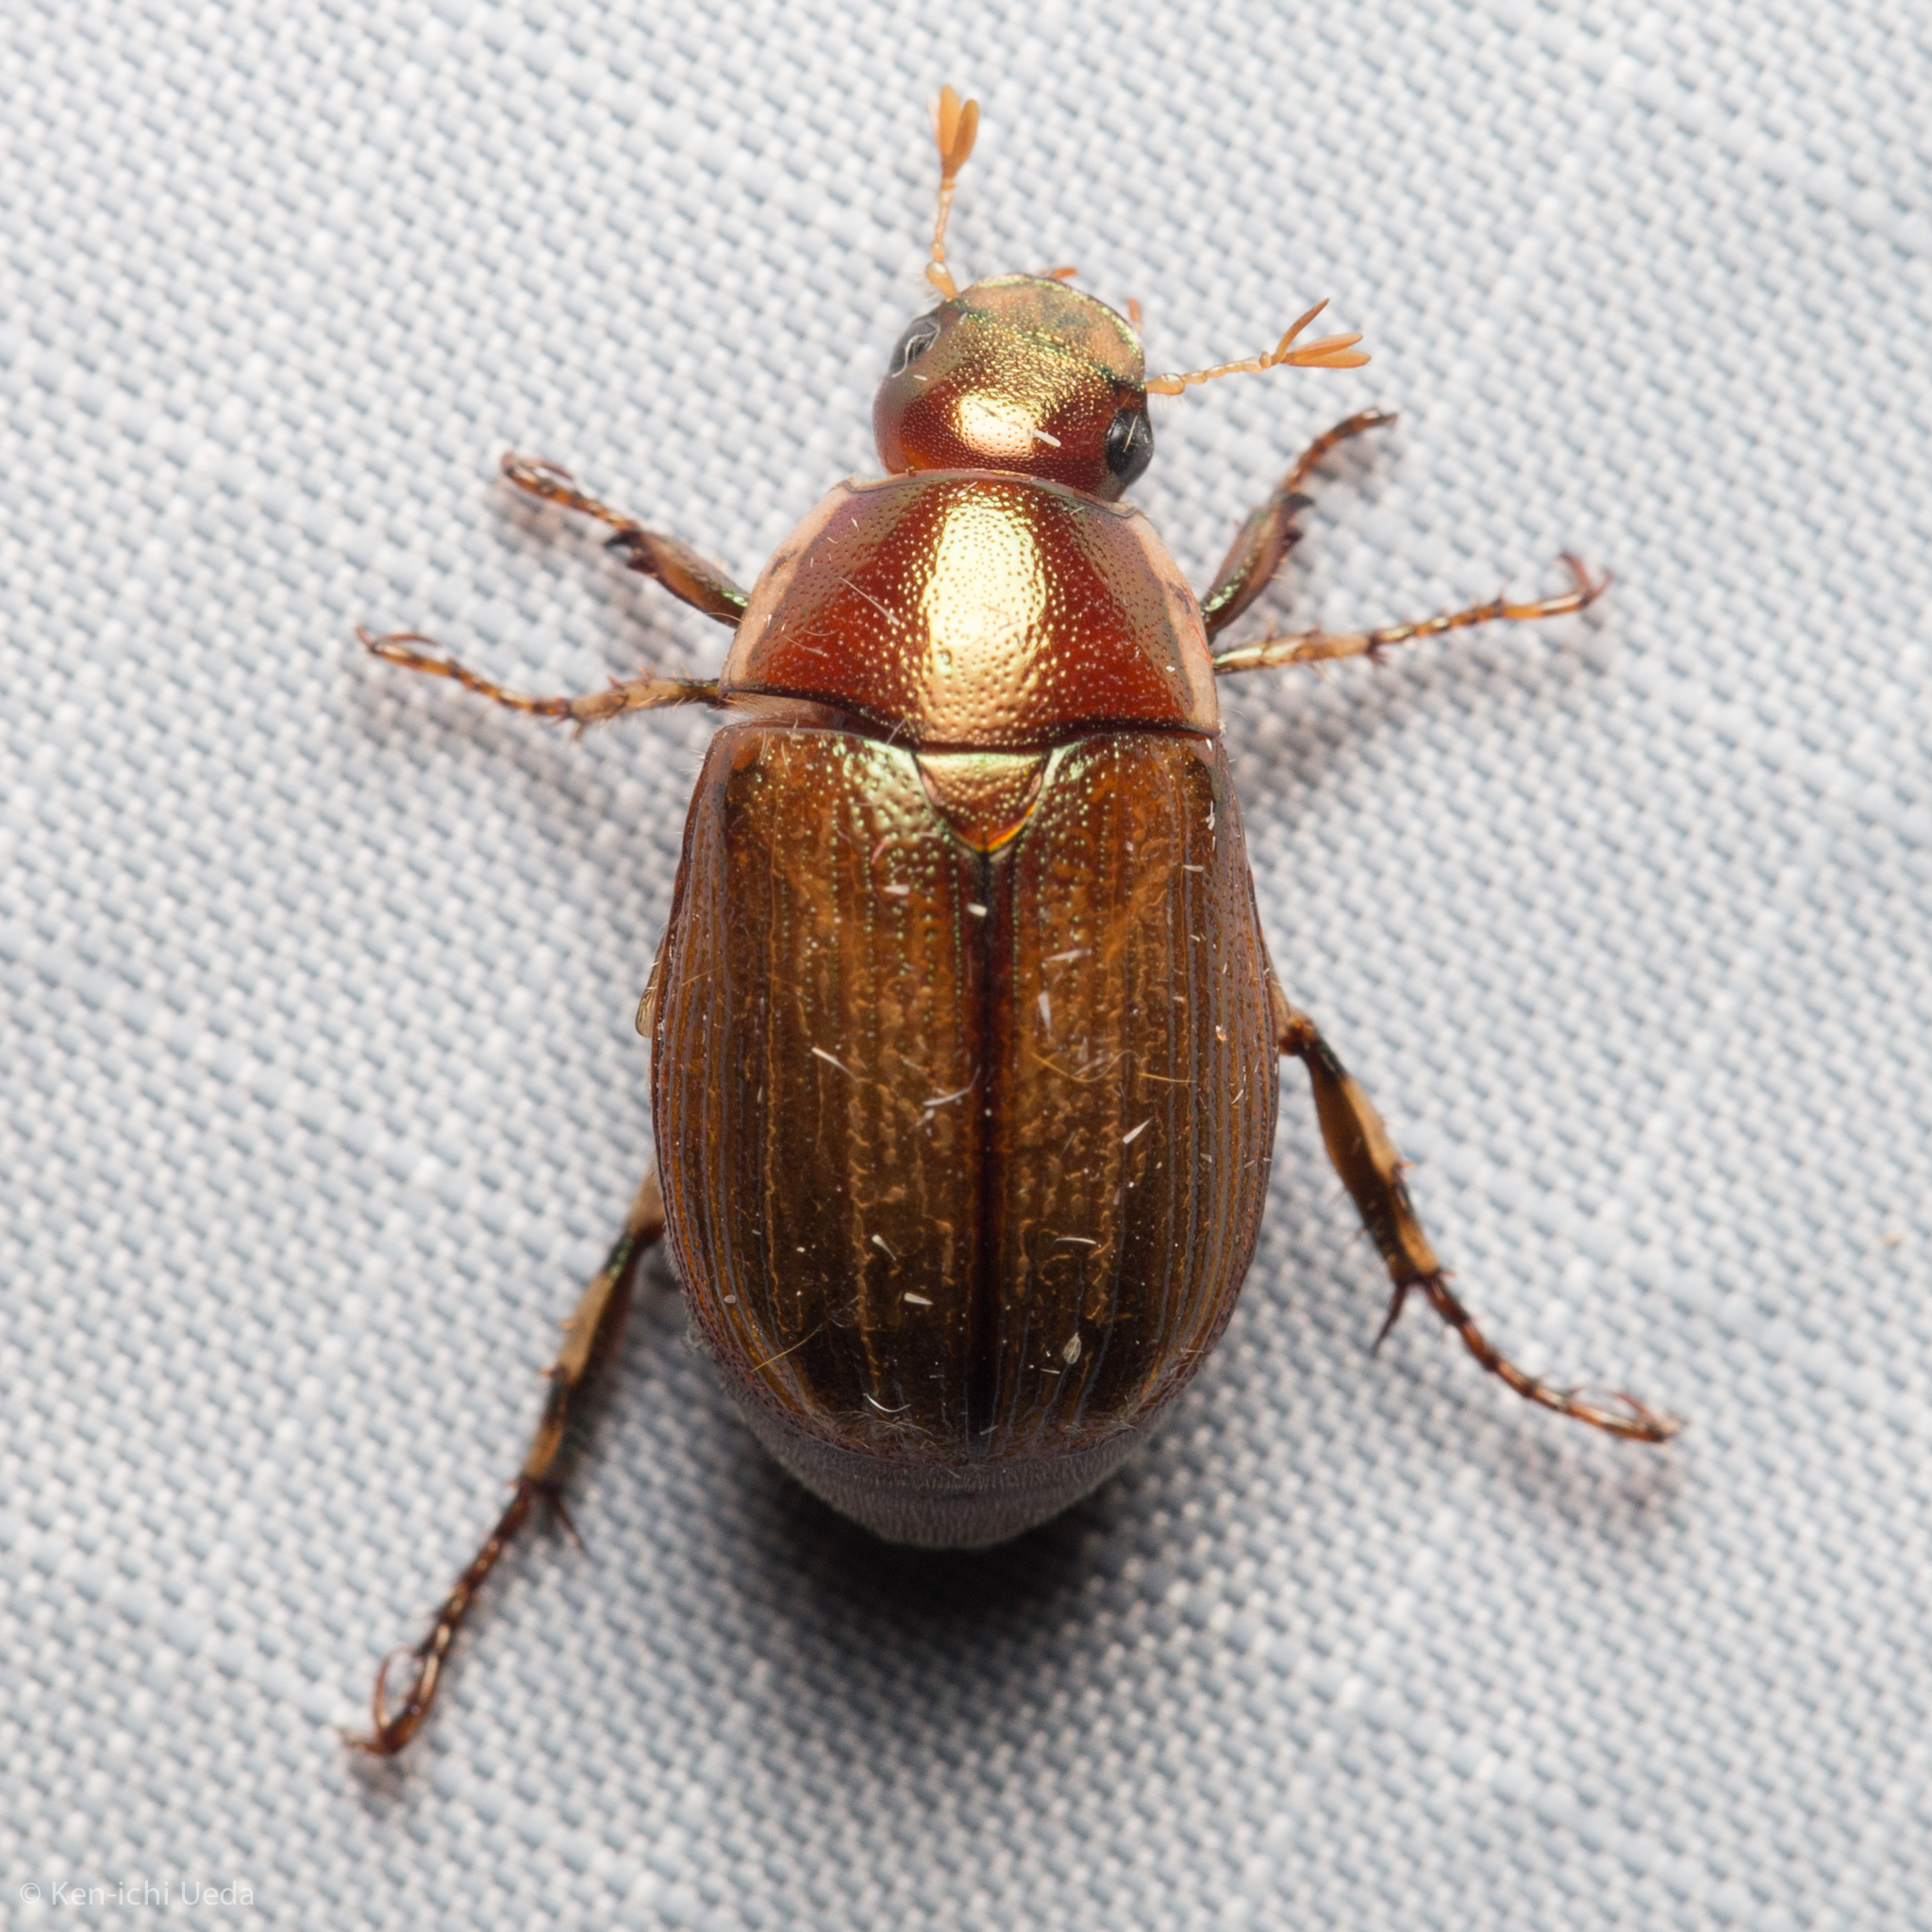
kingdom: Animalia
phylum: Arthropoda
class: Insecta
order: Coleoptera
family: Scarabaeidae
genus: Callistethus
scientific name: Callistethus marginatus
